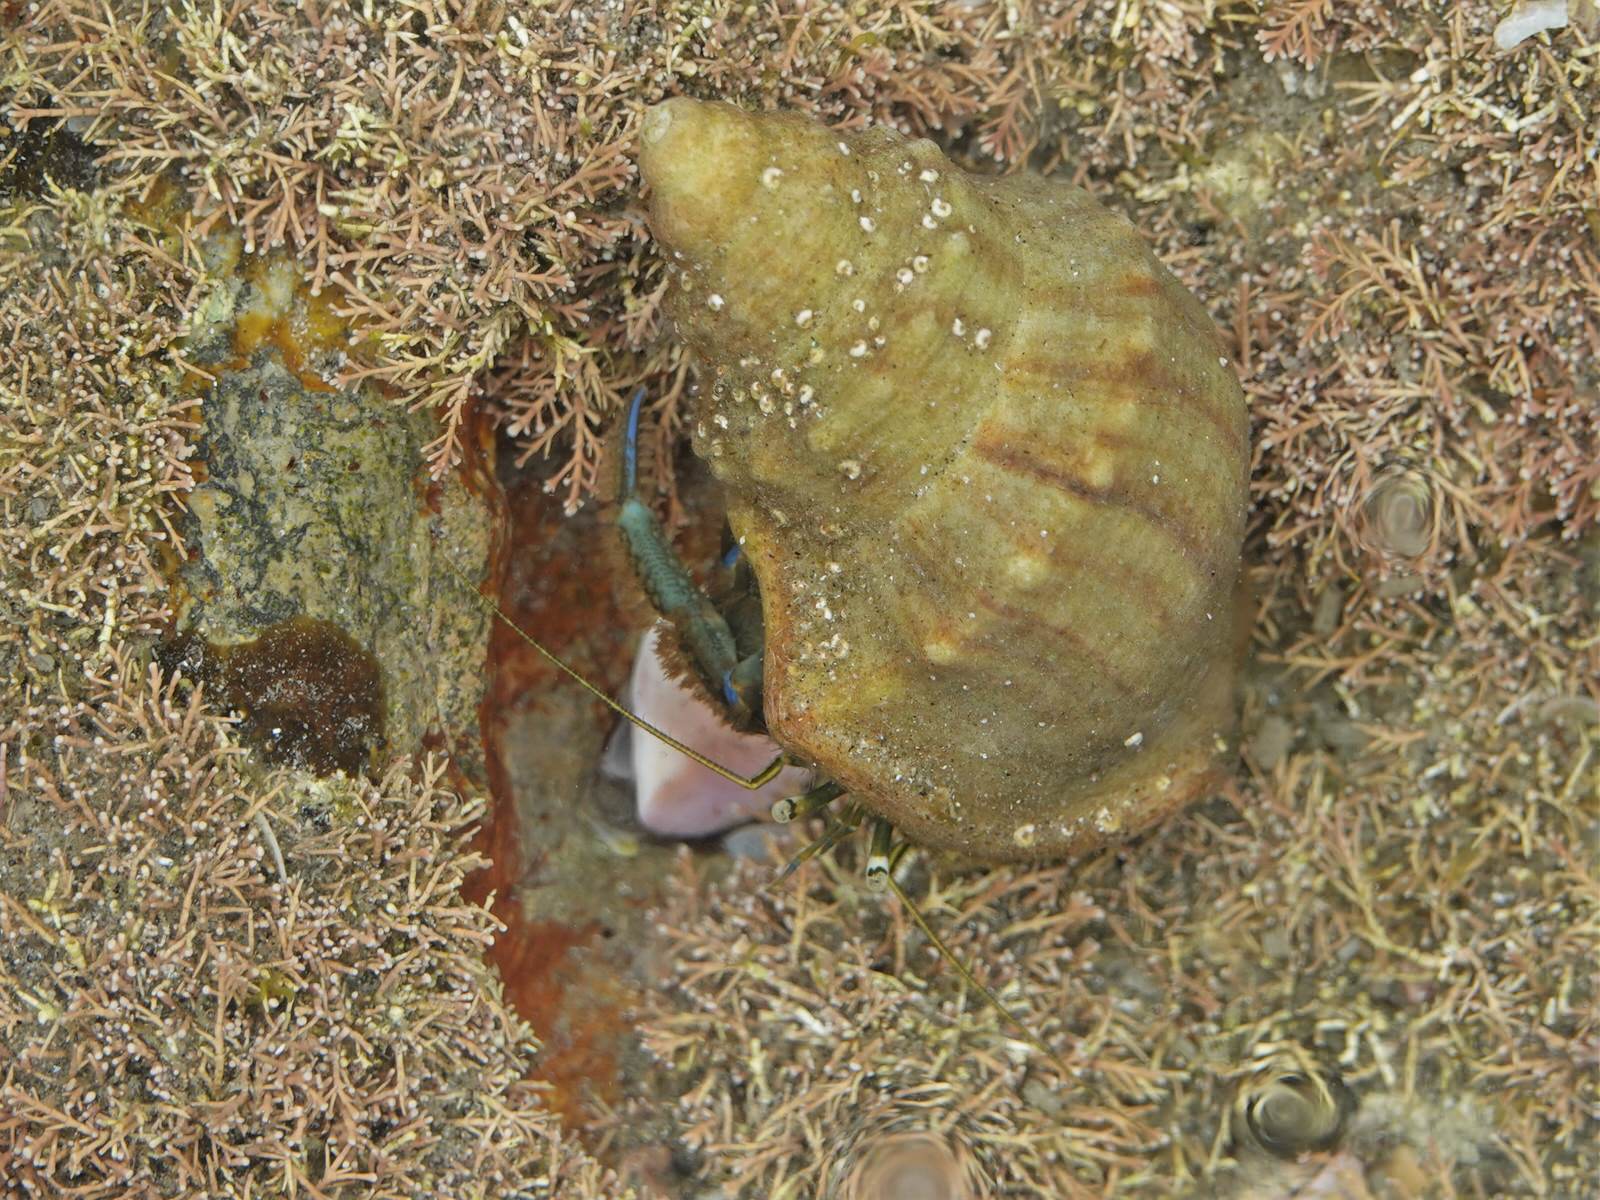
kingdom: Animalia
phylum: Arthropoda
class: Malacostraca
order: Decapoda
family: Paguridae
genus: Pagurus
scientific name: Pagurus novizealandiae
